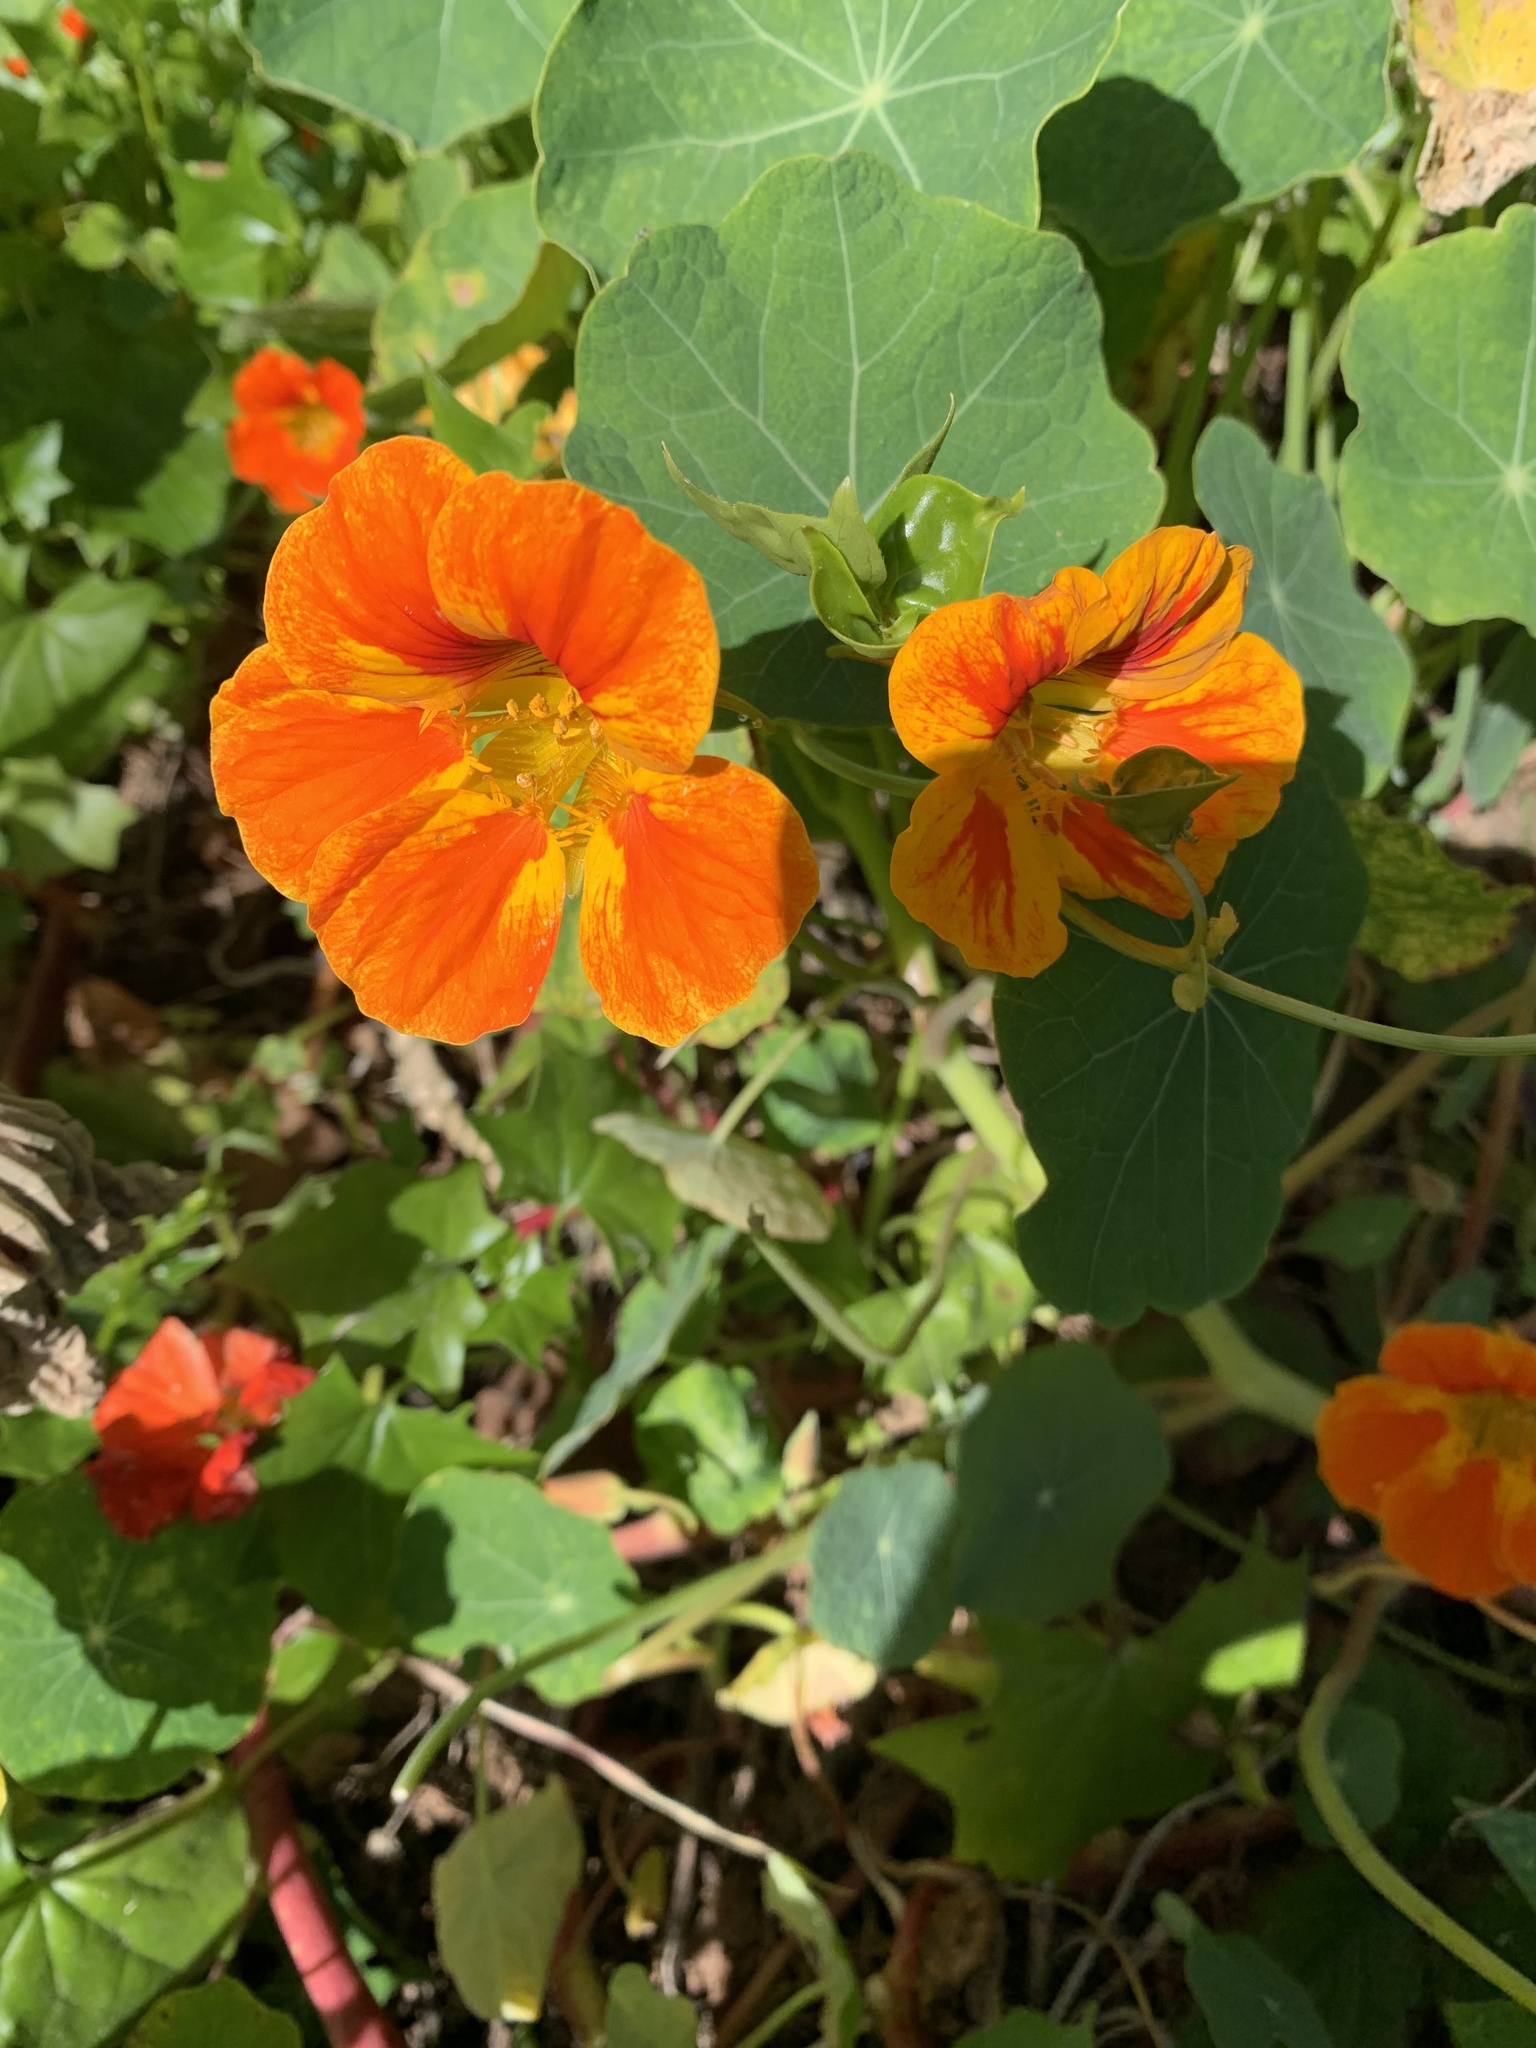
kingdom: Plantae
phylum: Tracheophyta
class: Magnoliopsida
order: Brassicales
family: Tropaeolaceae
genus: Tropaeolum
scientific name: Tropaeolum majus
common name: Nasturtium
